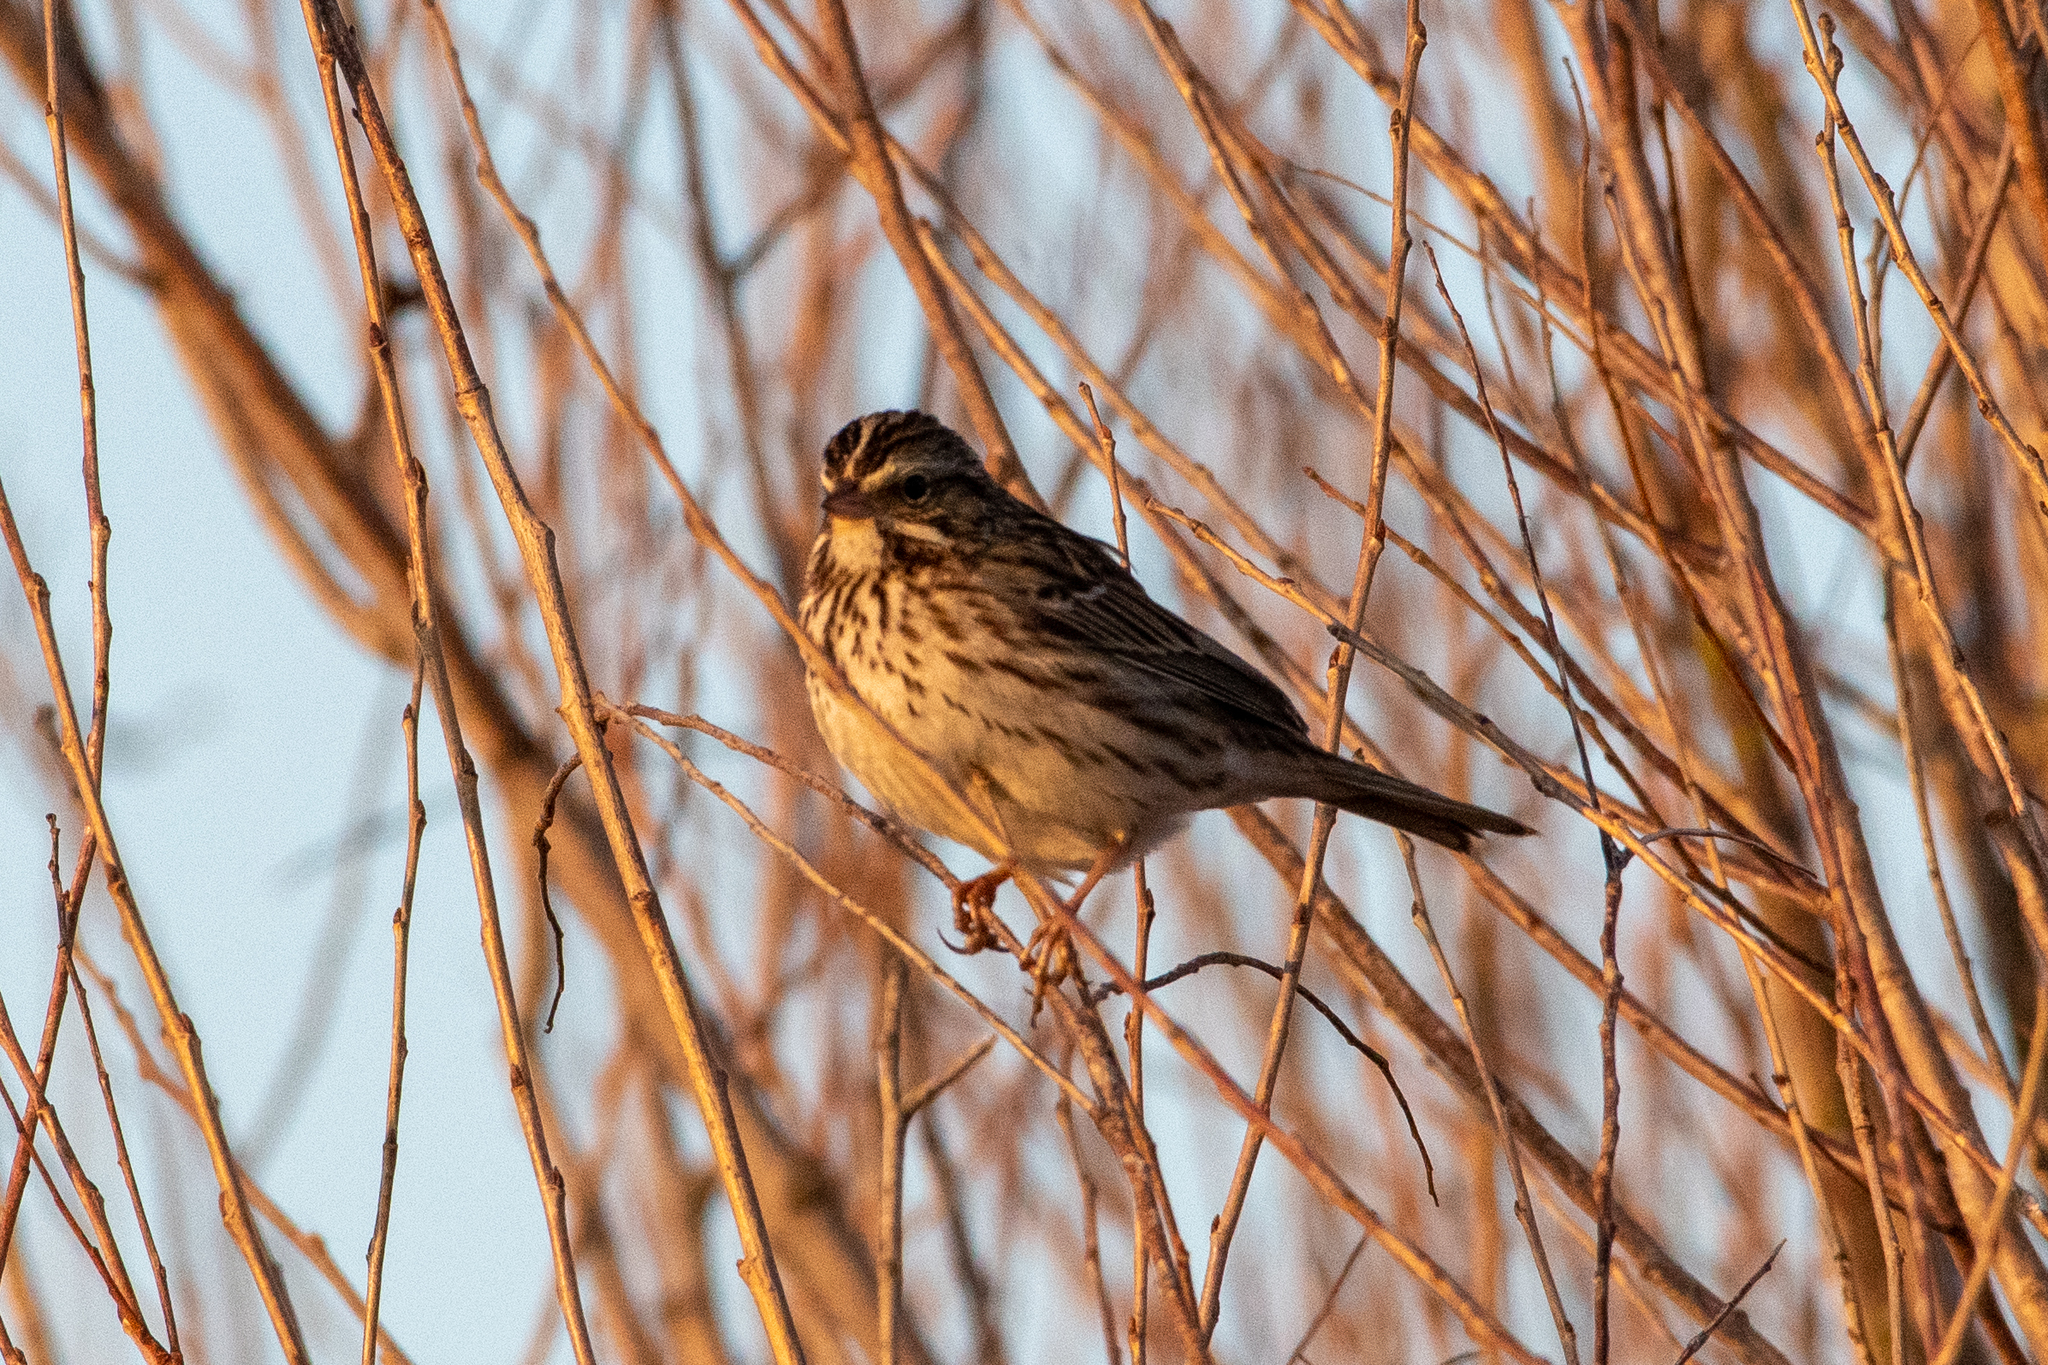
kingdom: Animalia
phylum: Chordata
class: Aves
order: Passeriformes
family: Passerellidae
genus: Passerculus
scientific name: Passerculus sandwichensis
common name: Savannah sparrow
